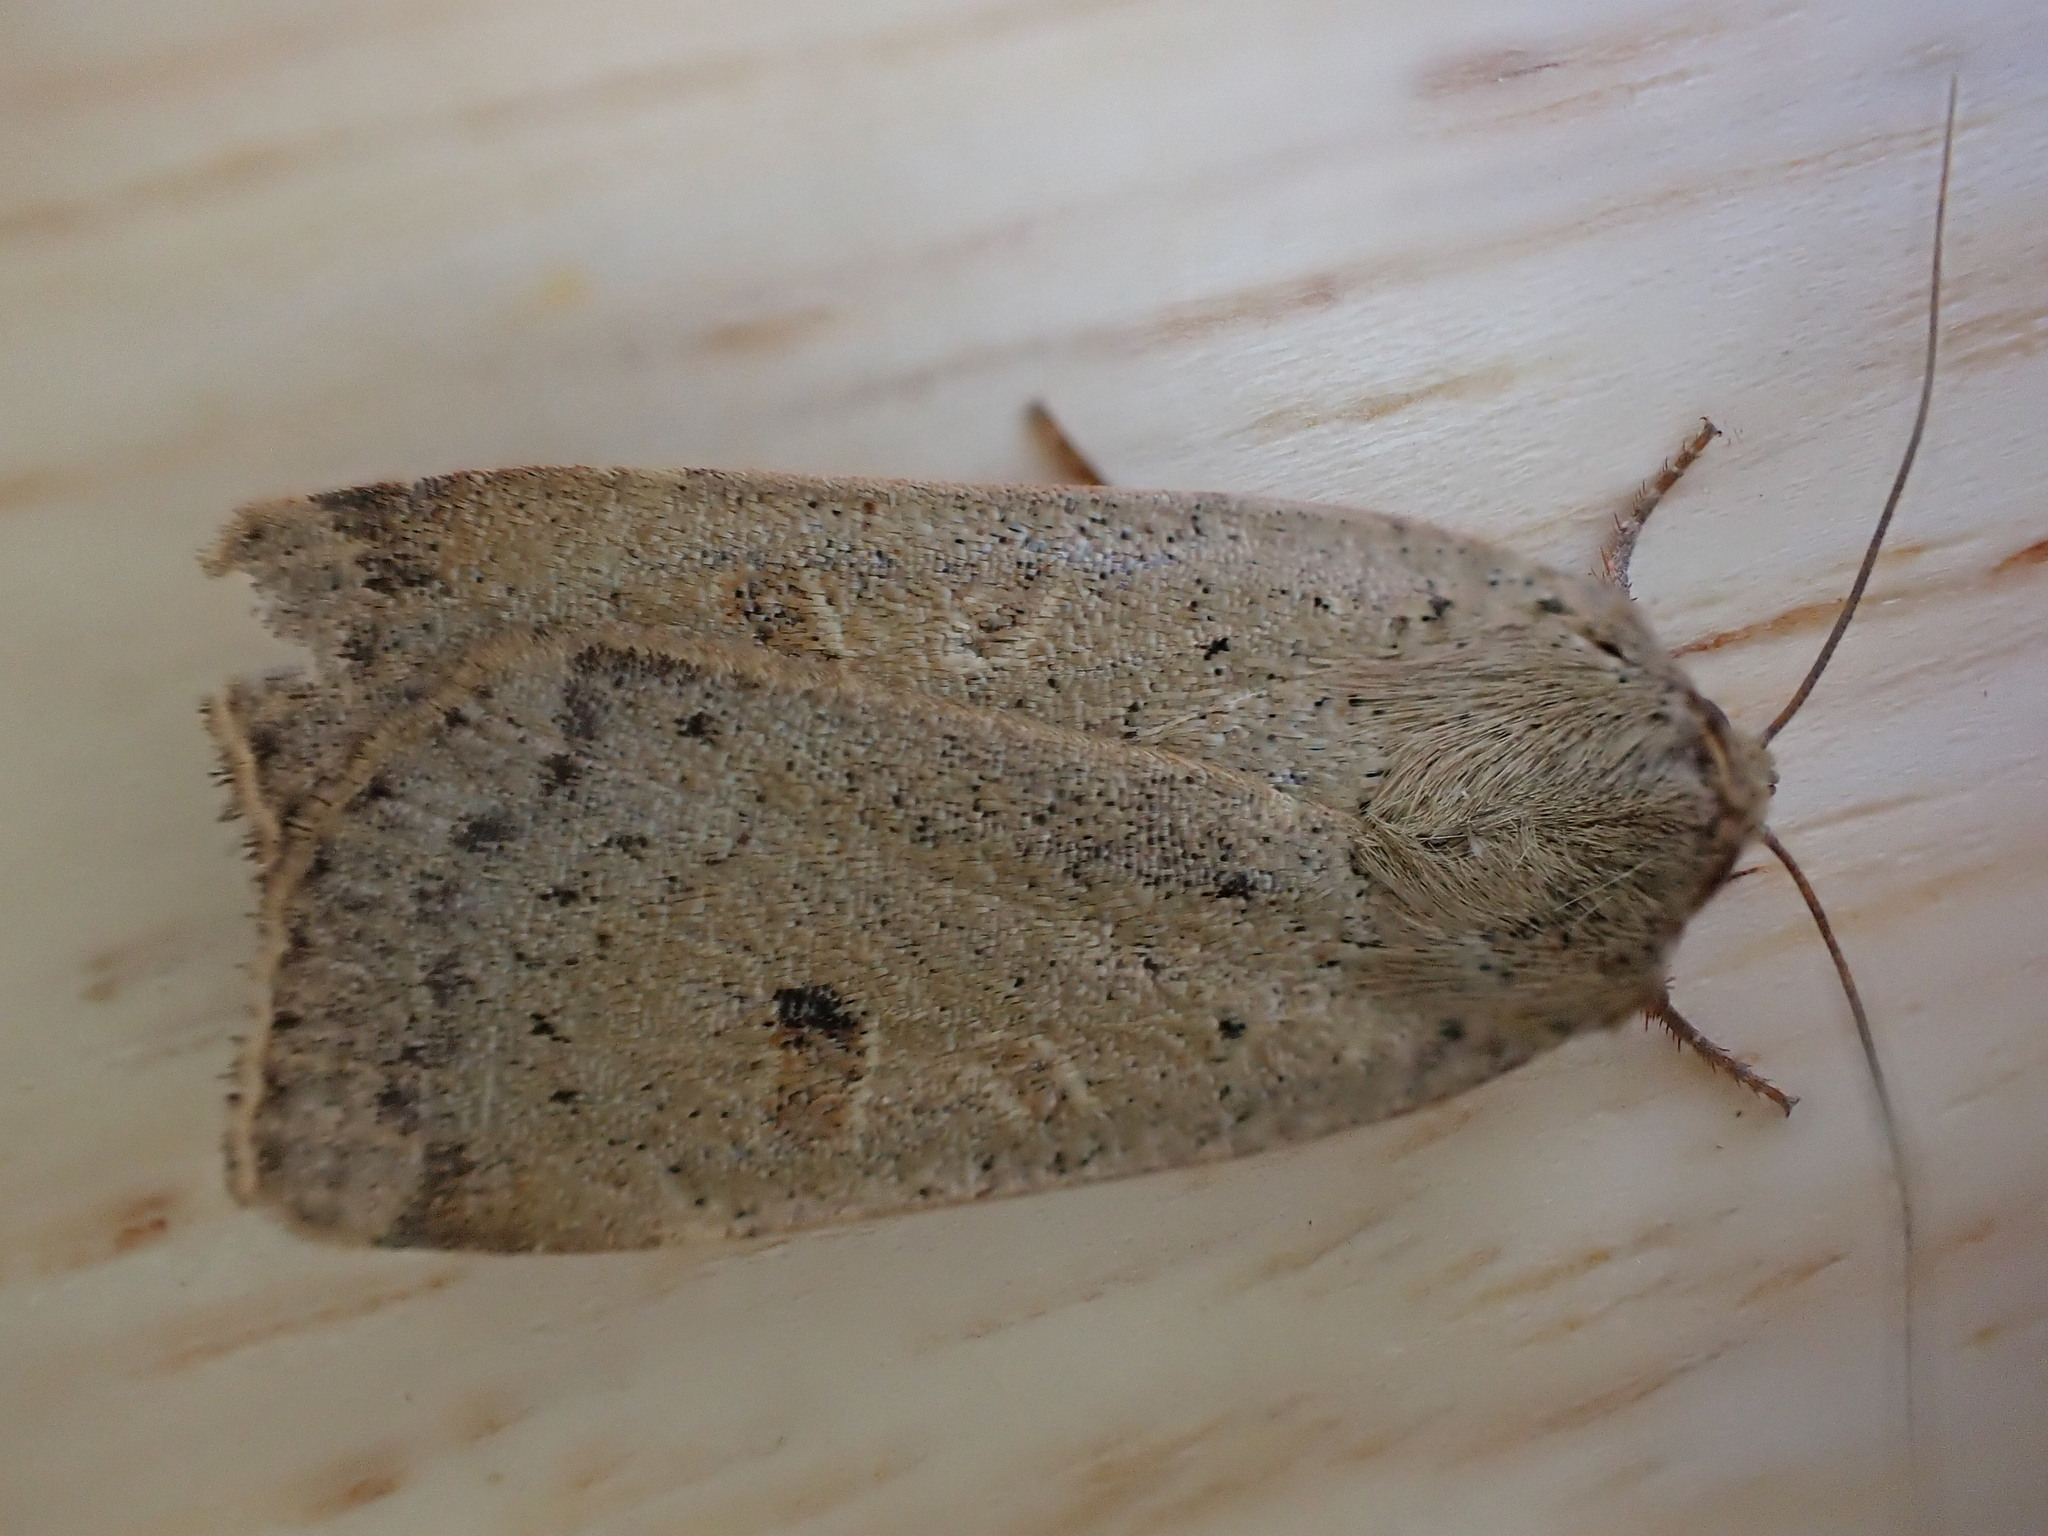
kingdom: Animalia
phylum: Arthropoda
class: Insecta
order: Lepidoptera
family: Noctuidae
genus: Noctua
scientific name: Noctua comes
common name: Lesser yellow underwing
